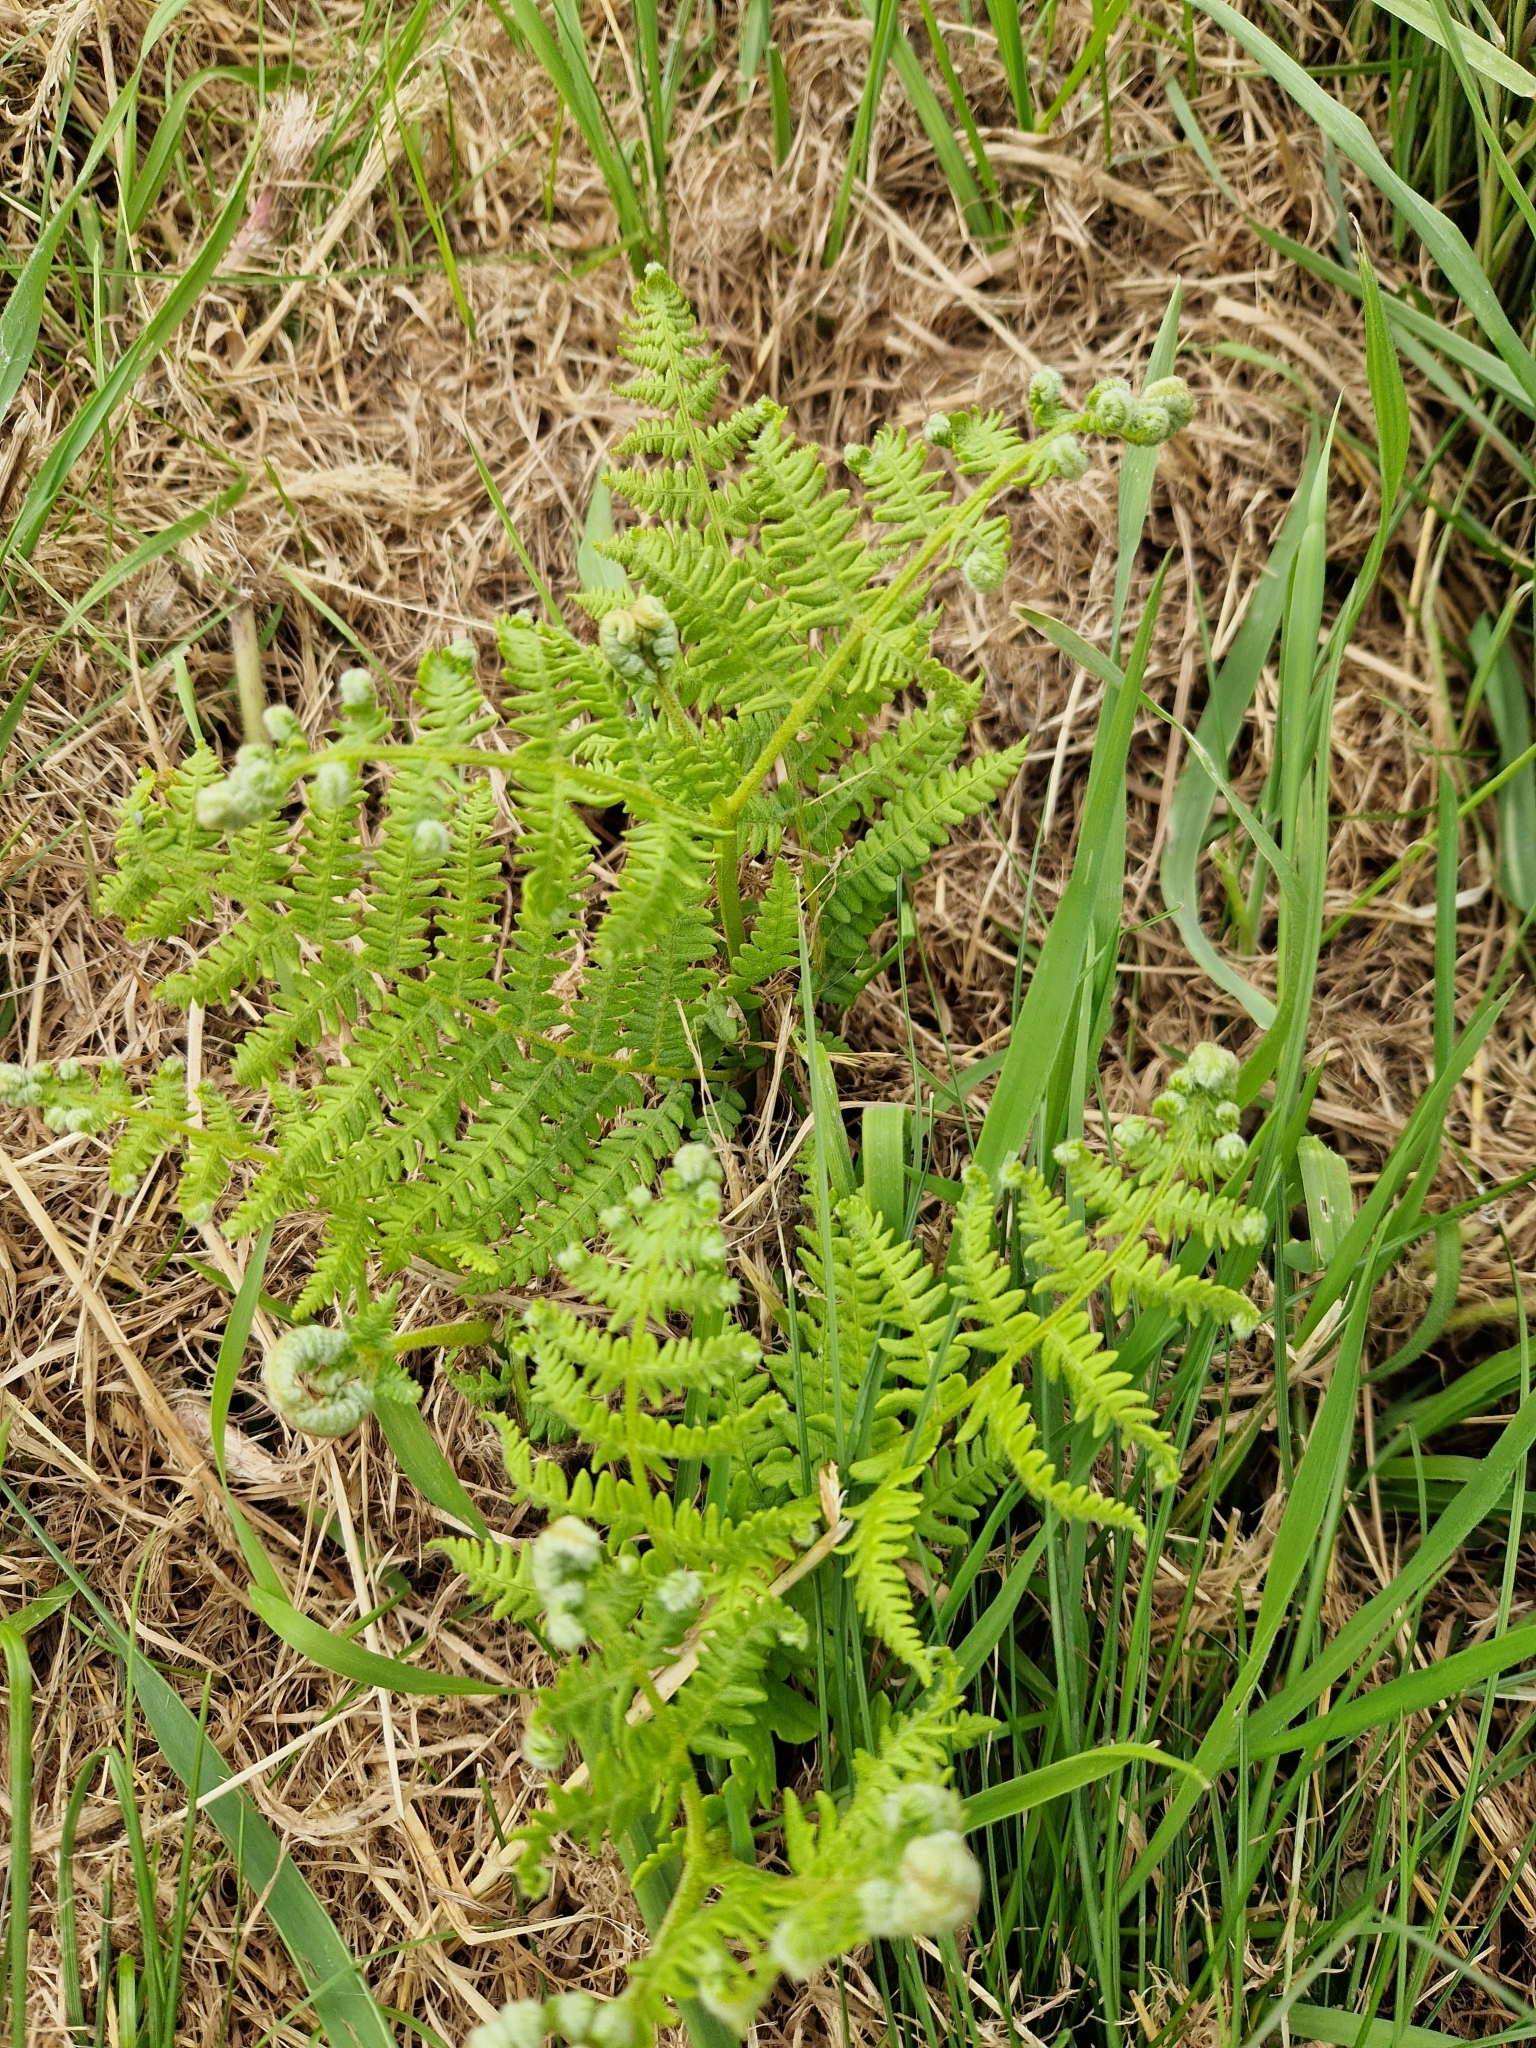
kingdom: Plantae
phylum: Tracheophyta
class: Polypodiopsida
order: Polypodiales
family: Dennstaedtiaceae
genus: Pteridium
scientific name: Pteridium aquilinum
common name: Bracken
